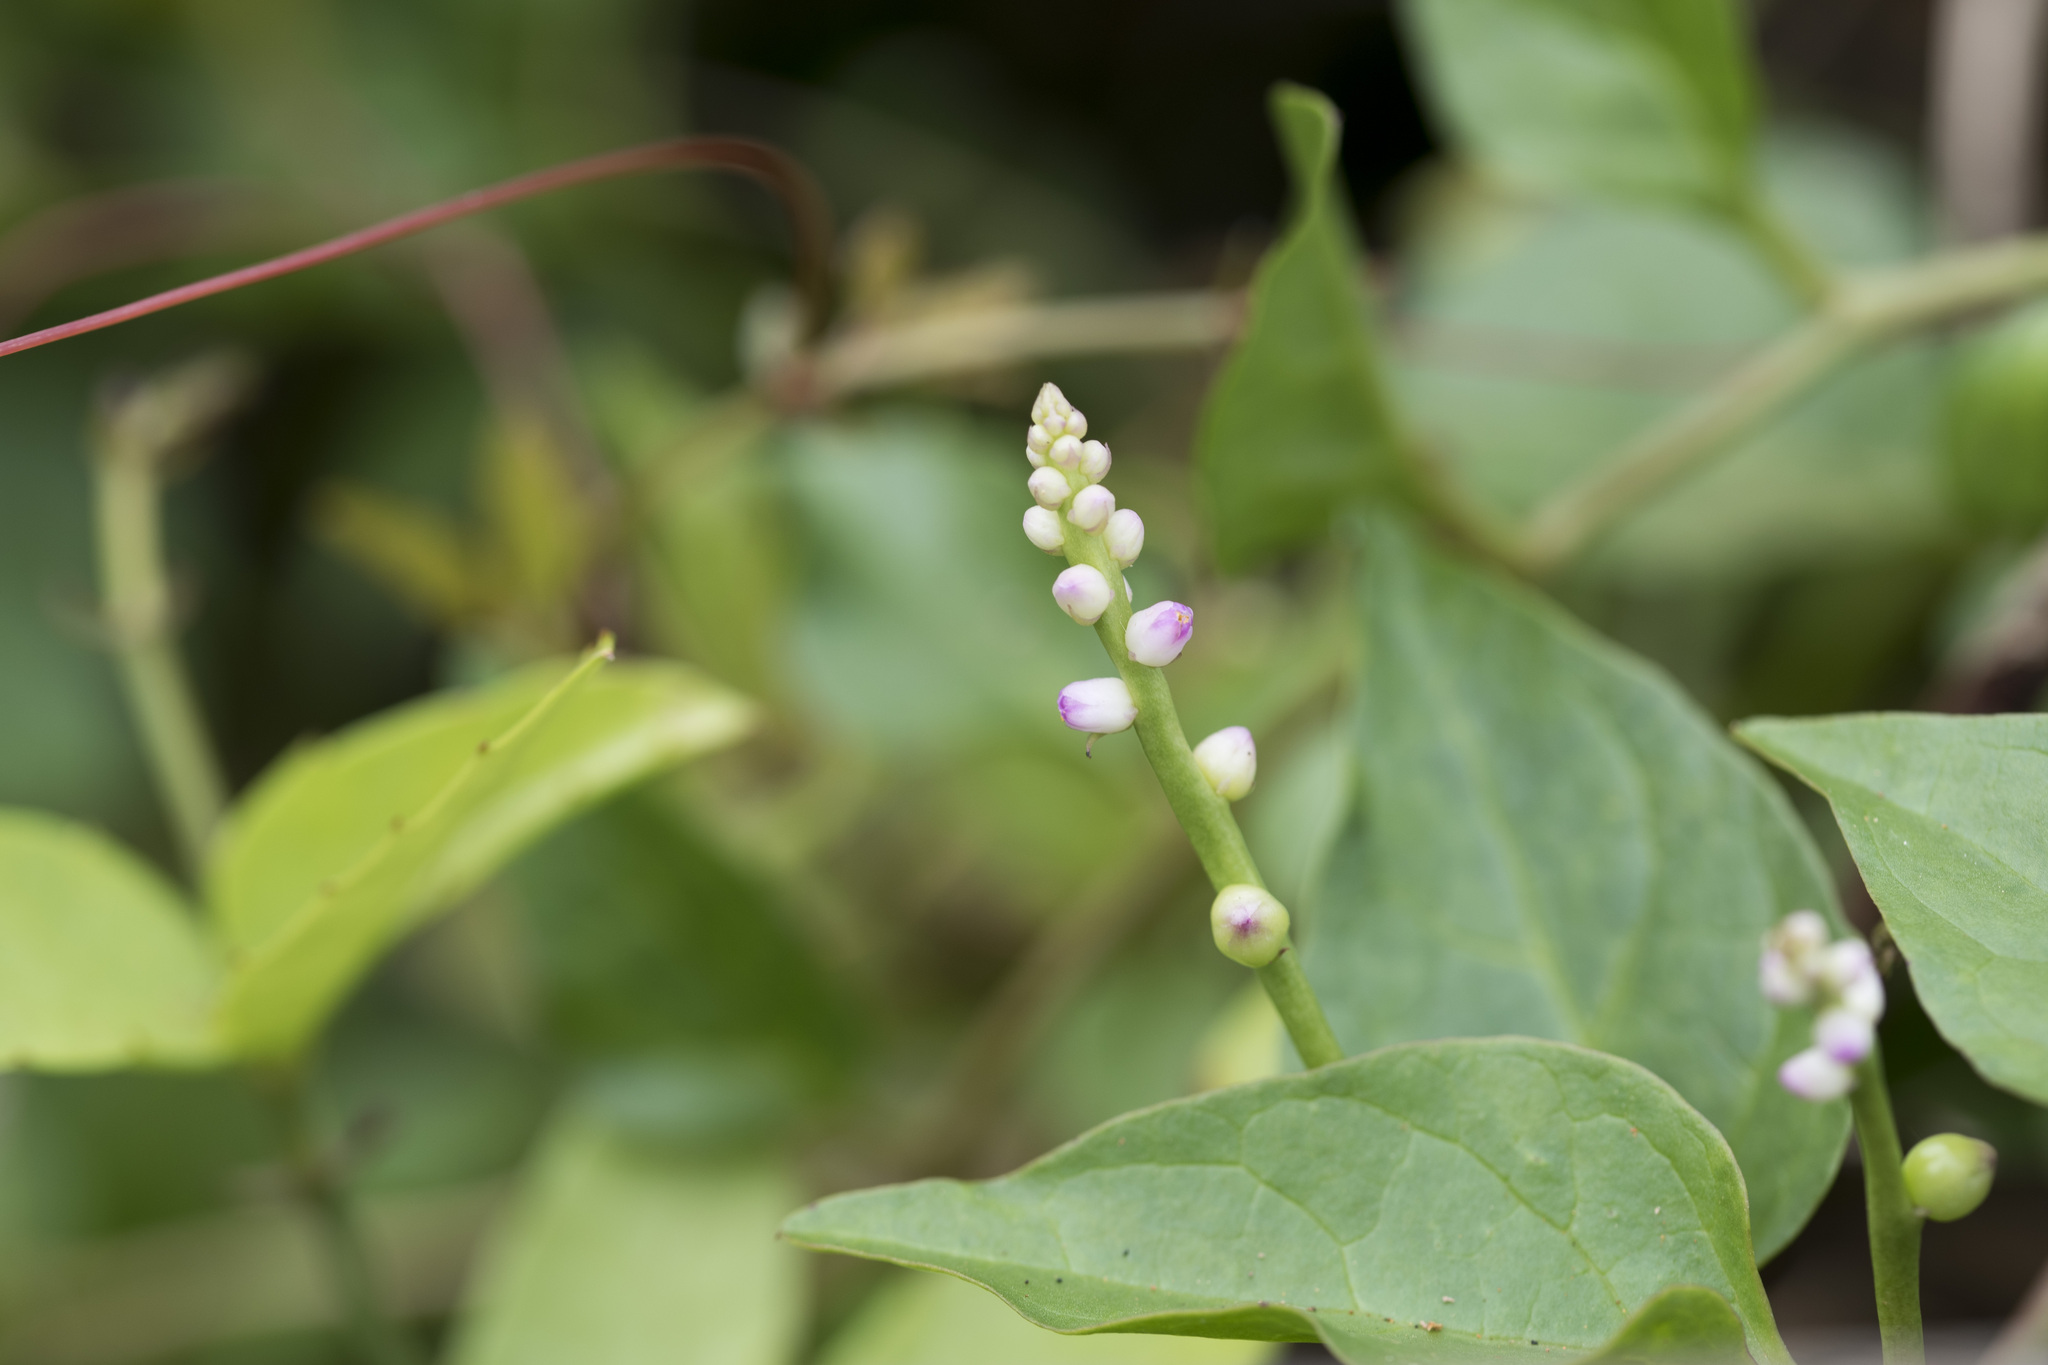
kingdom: Plantae
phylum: Tracheophyta
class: Magnoliopsida
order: Caryophyllales
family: Basellaceae
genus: Basella
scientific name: Basella alba
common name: Indian spinach
